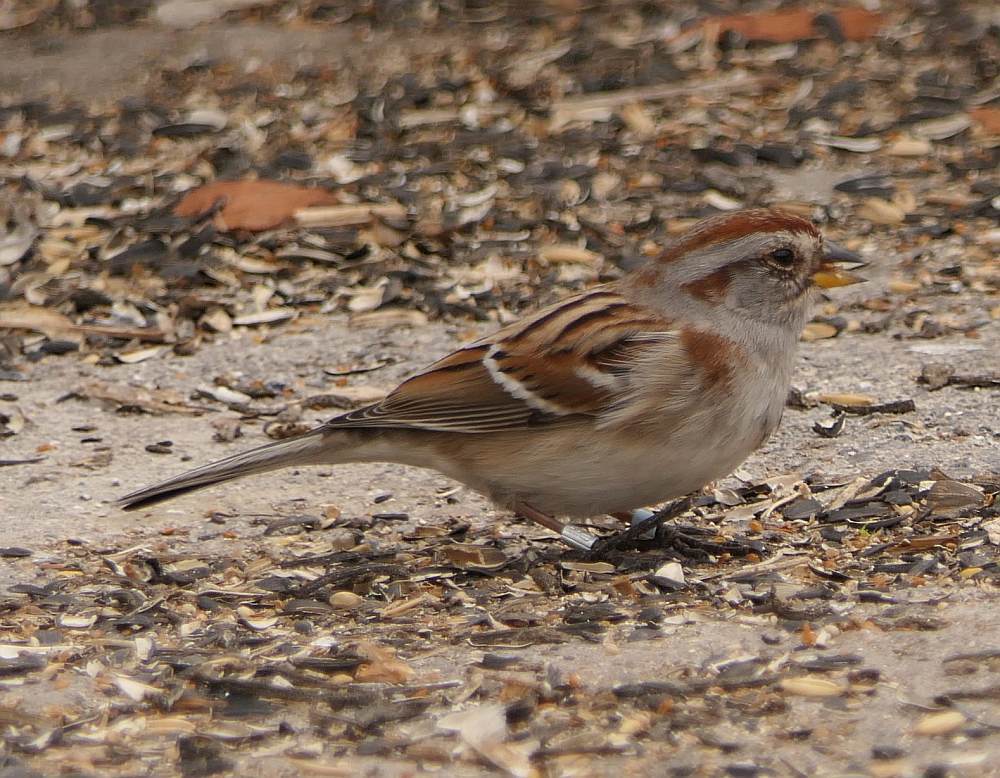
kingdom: Animalia
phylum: Chordata
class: Aves
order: Passeriformes
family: Passerellidae
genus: Spizelloides
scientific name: Spizelloides arborea
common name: American tree sparrow
